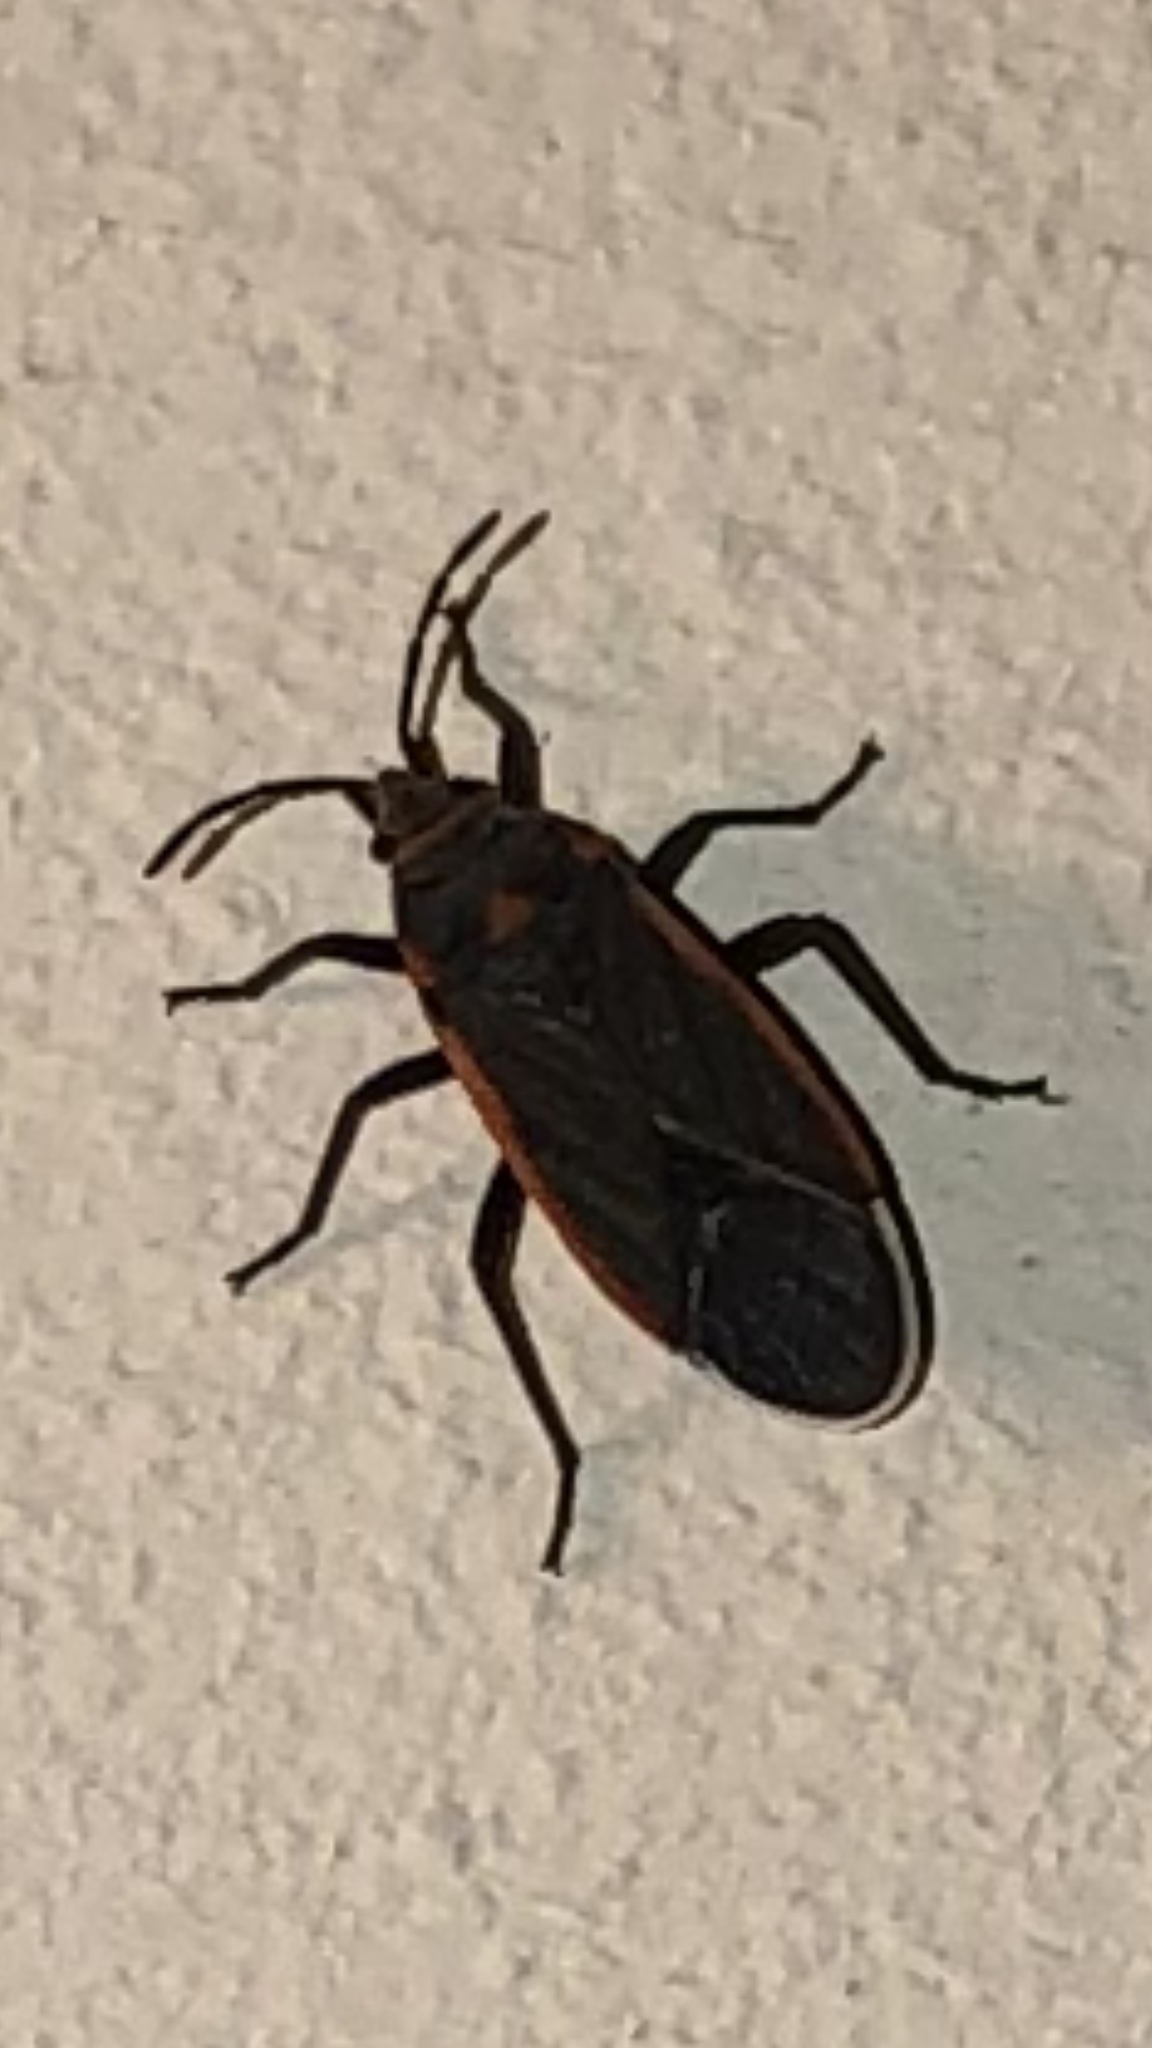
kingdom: Animalia
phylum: Arthropoda
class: Insecta
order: Hemiptera
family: Lygaeidae
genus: Melacoryphus
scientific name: Melacoryphus lateralis
